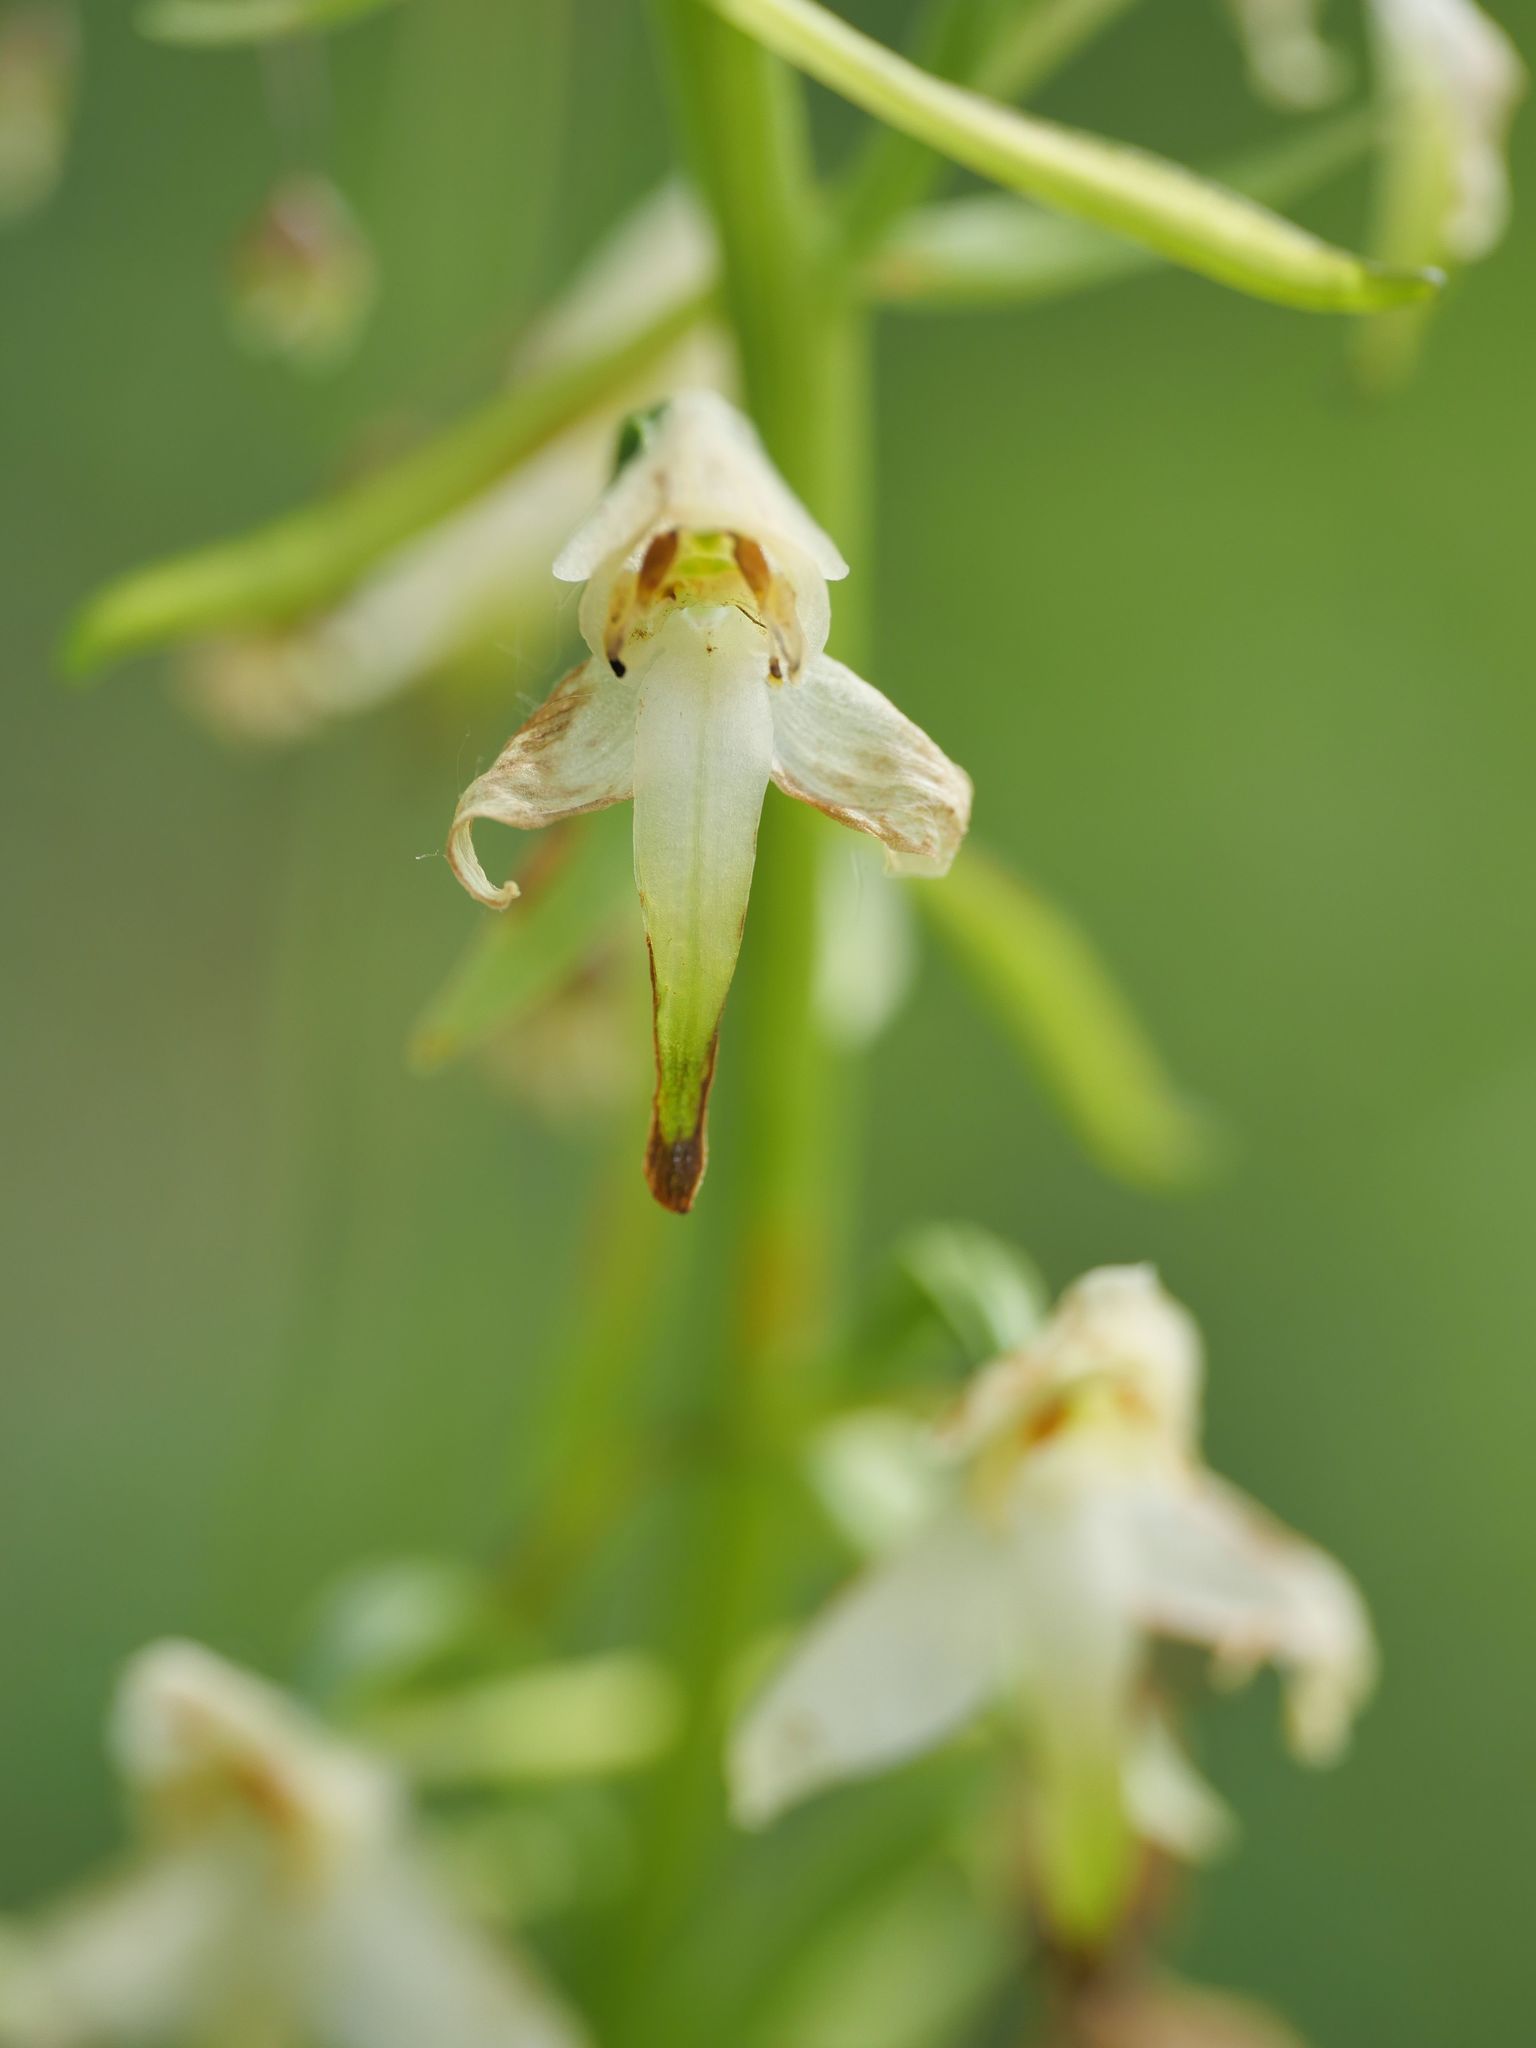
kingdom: Plantae
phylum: Tracheophyta
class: Liliopsida
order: Asparagales
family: Orchidaceae
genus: Platanthera
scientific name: Platanthera chlorantha
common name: Greater butterfly-orchid
